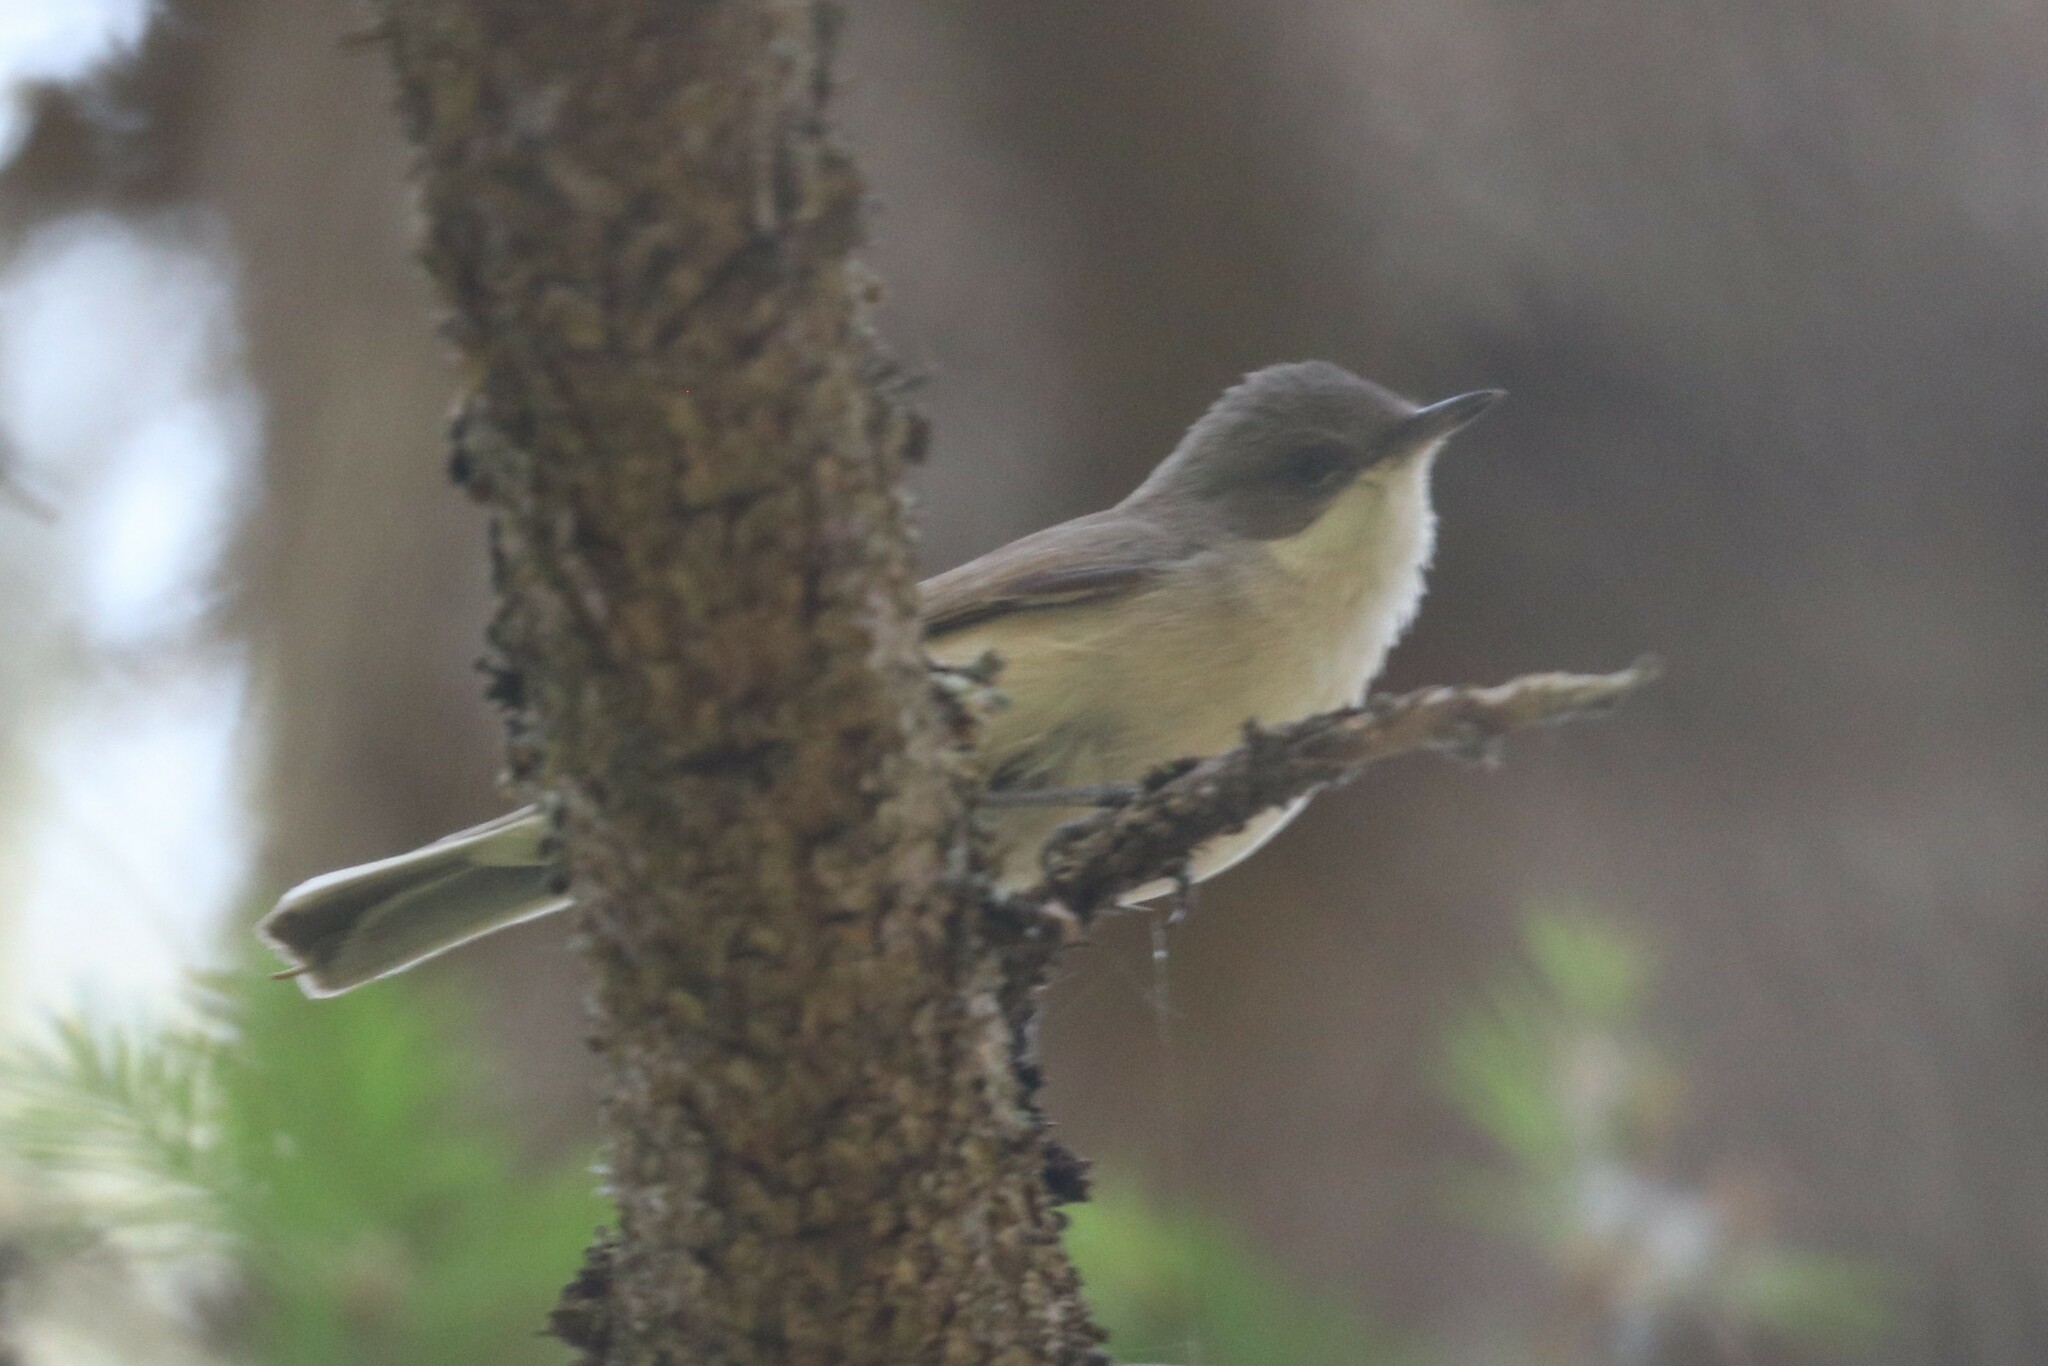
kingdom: Animalia
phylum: Chordata
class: Aves
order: Passeriformes
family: Sylviidae
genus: Sylvia
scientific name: Sylvia curruca
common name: Lesser whitethroat
